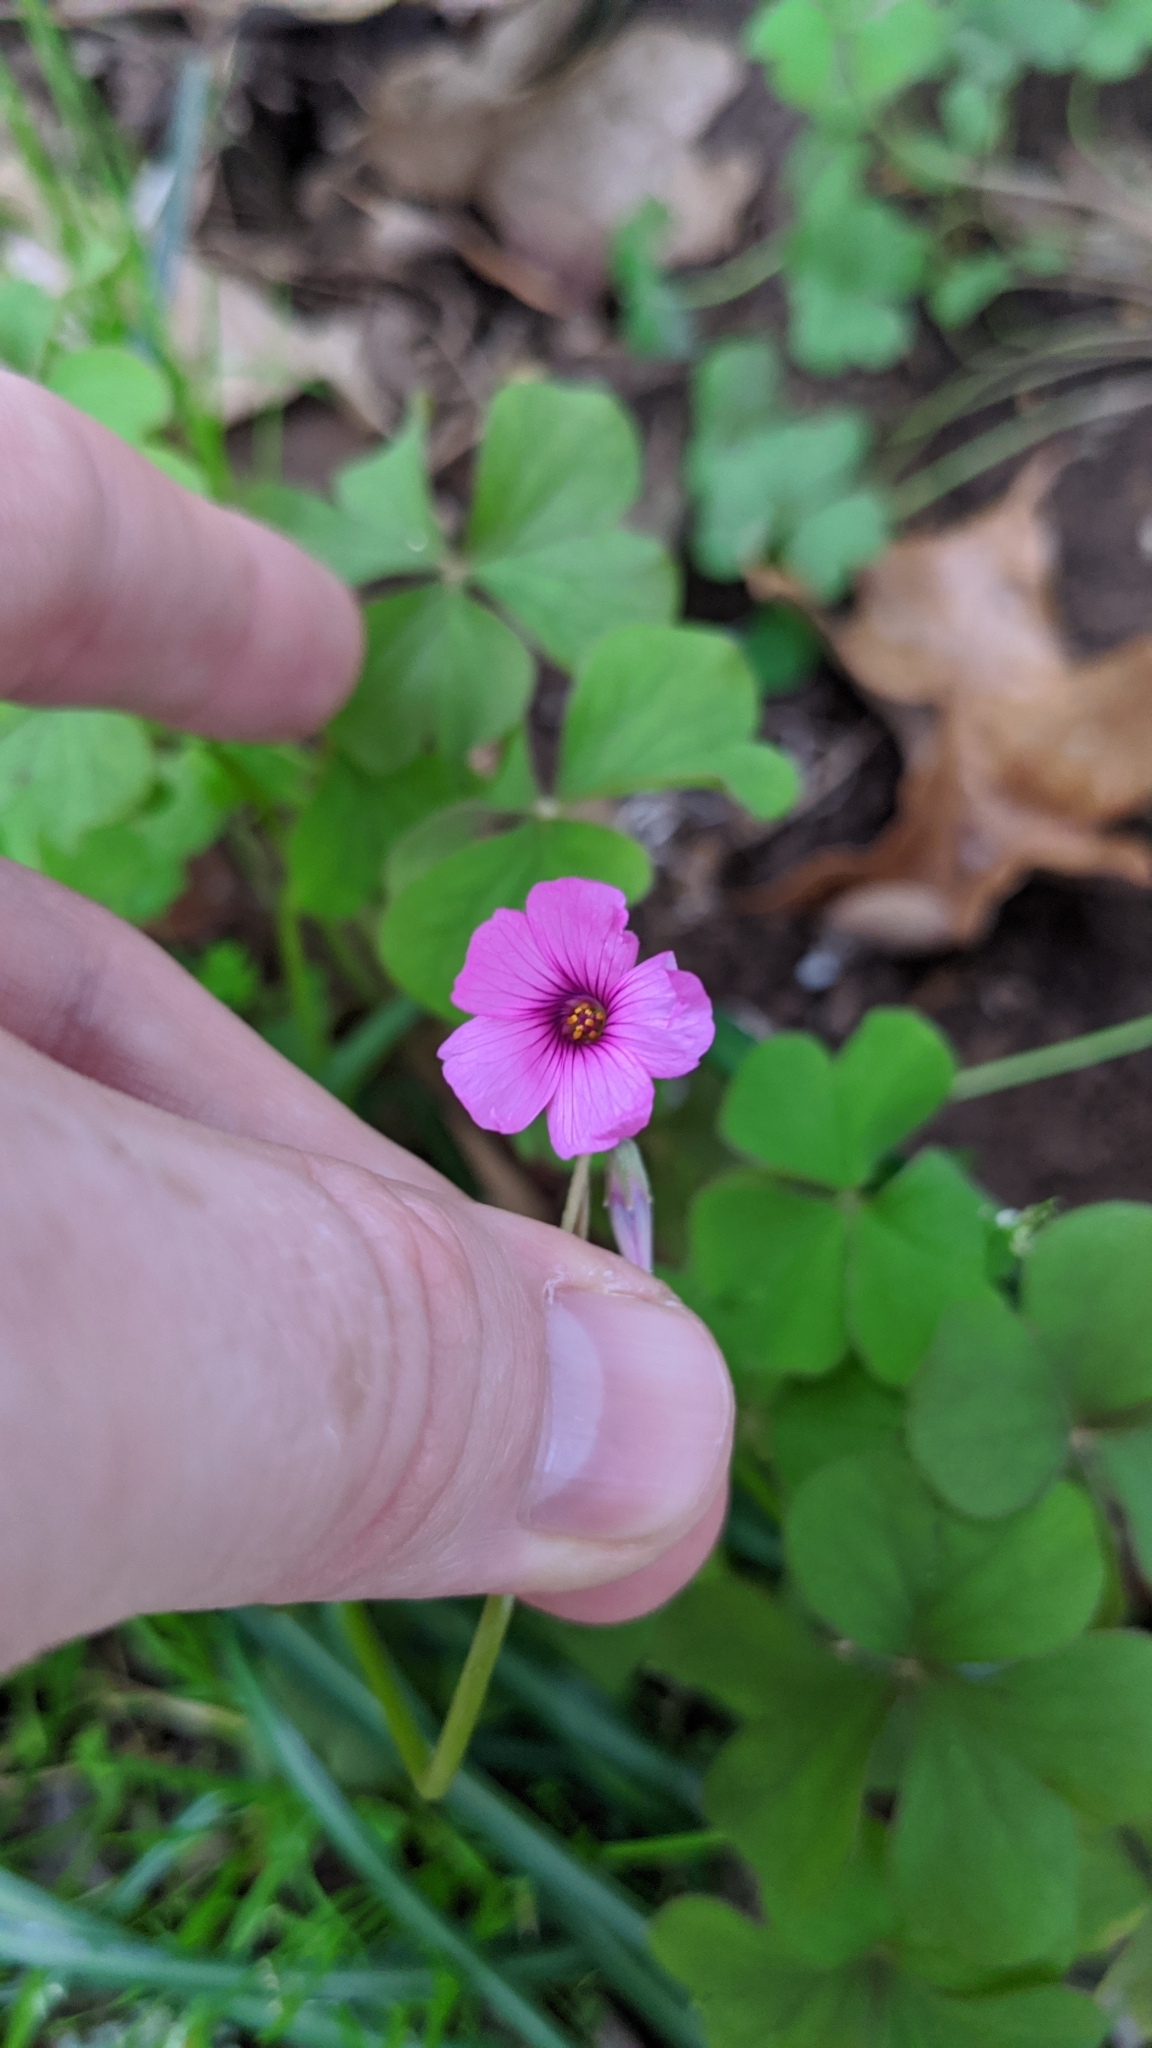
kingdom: Plantae
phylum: Tracheophyta
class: Magnoliopsida
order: Oxalidales
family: Oxalidaceae
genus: Oxalis
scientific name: Oxalis articulata
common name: Pink-sorrel
